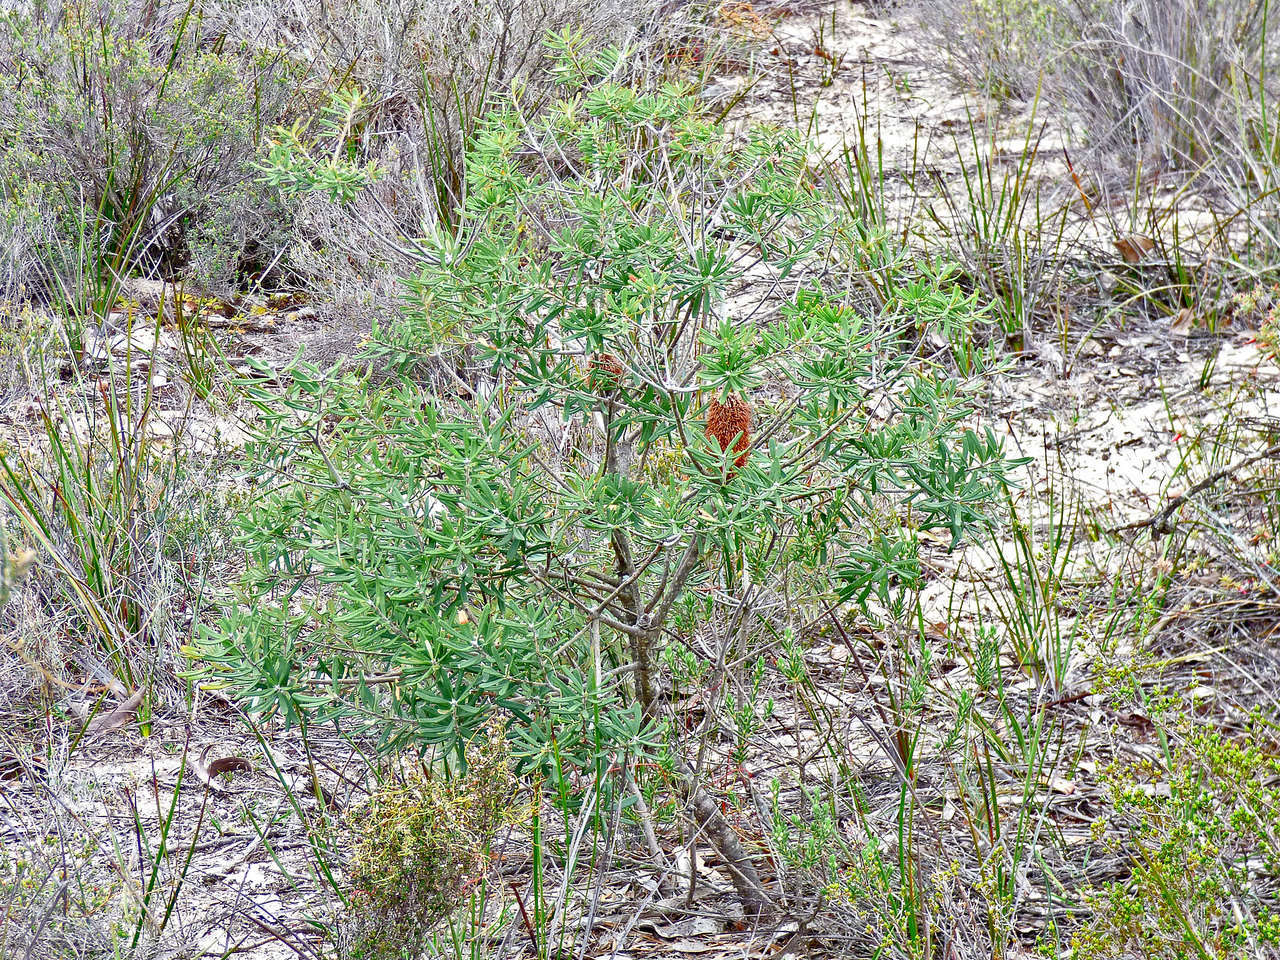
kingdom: Plantae
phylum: Tracheophyta
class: Magnoliopsida
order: Proteales
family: Proteaceae
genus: Banksia
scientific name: Banksia marginata
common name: Silver banksia
